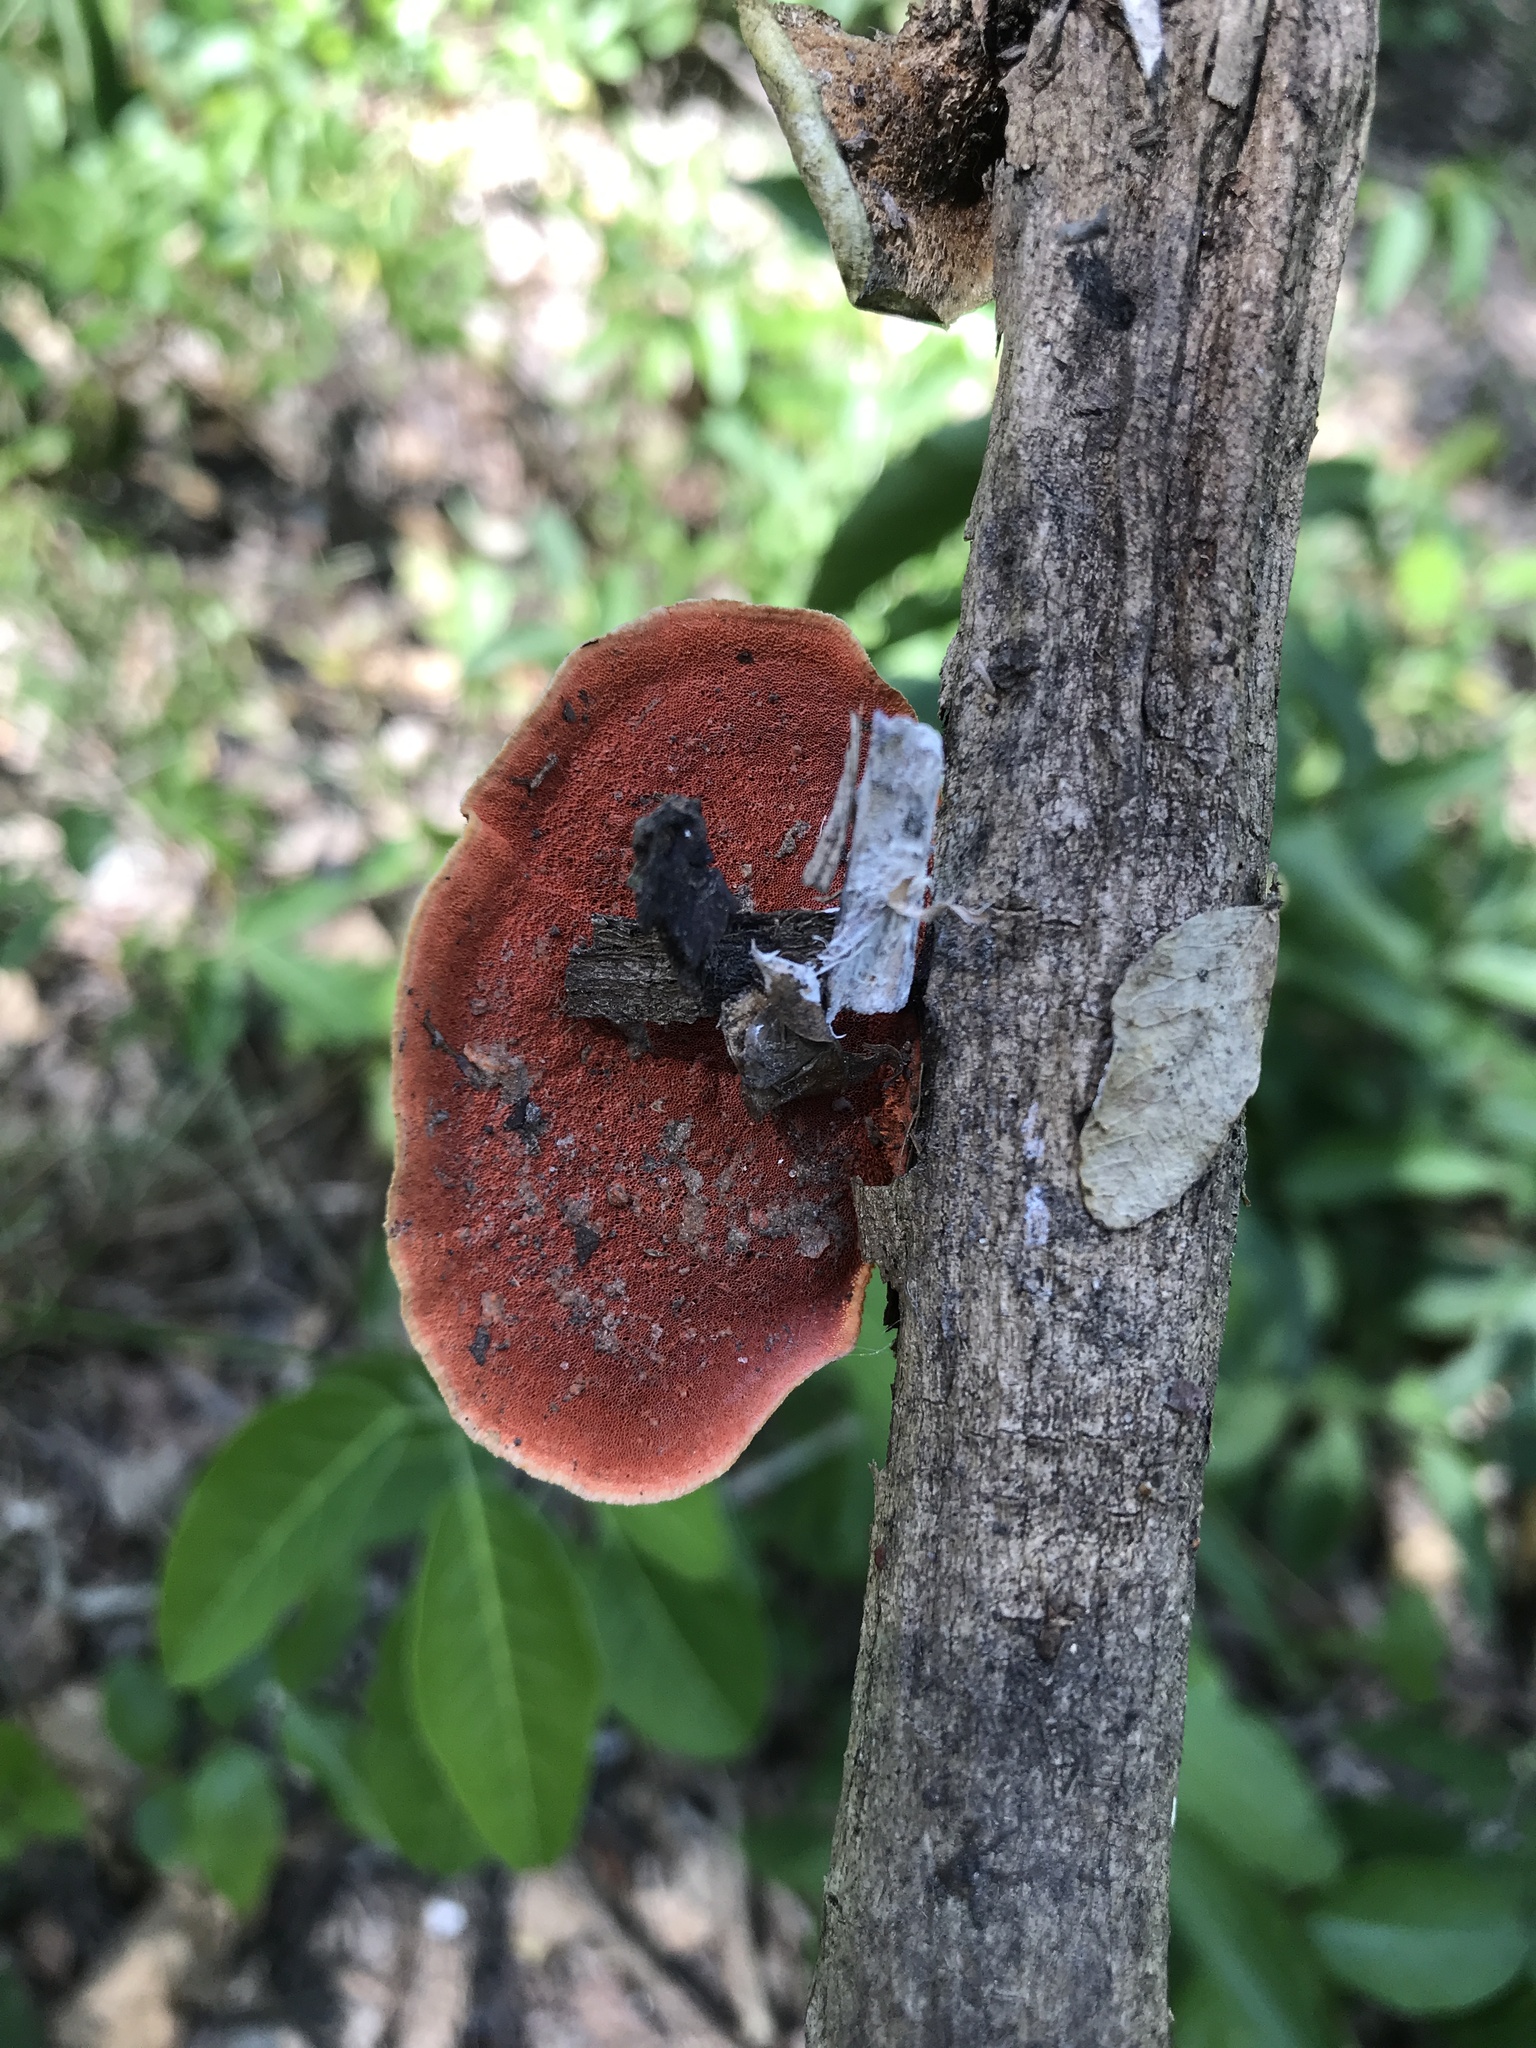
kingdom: Fungi
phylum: Basidiomycota
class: Agaricomycetes
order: Polyporales
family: Polyporaceae
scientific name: Polyporaceae
